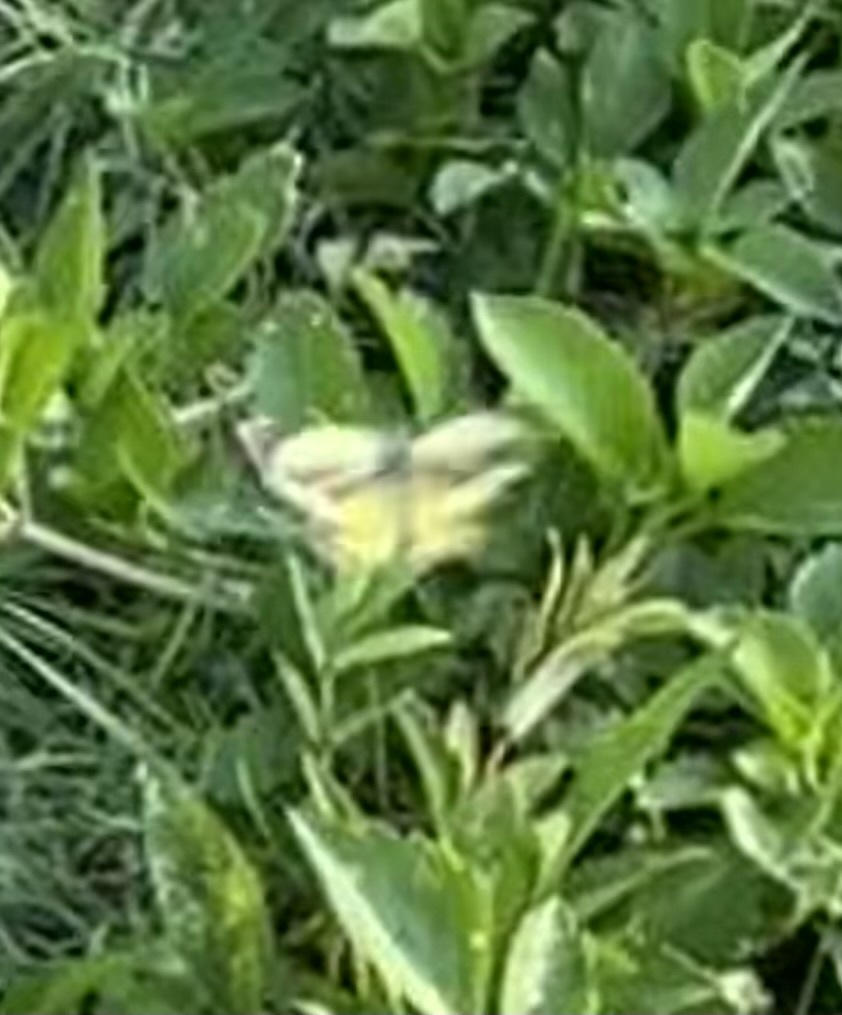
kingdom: Animalia
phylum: Arthropoda
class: Insecta
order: Lepidoptera
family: Pieridae
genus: Nathalis
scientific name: Nathalis iole
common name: Dainty sulphur
